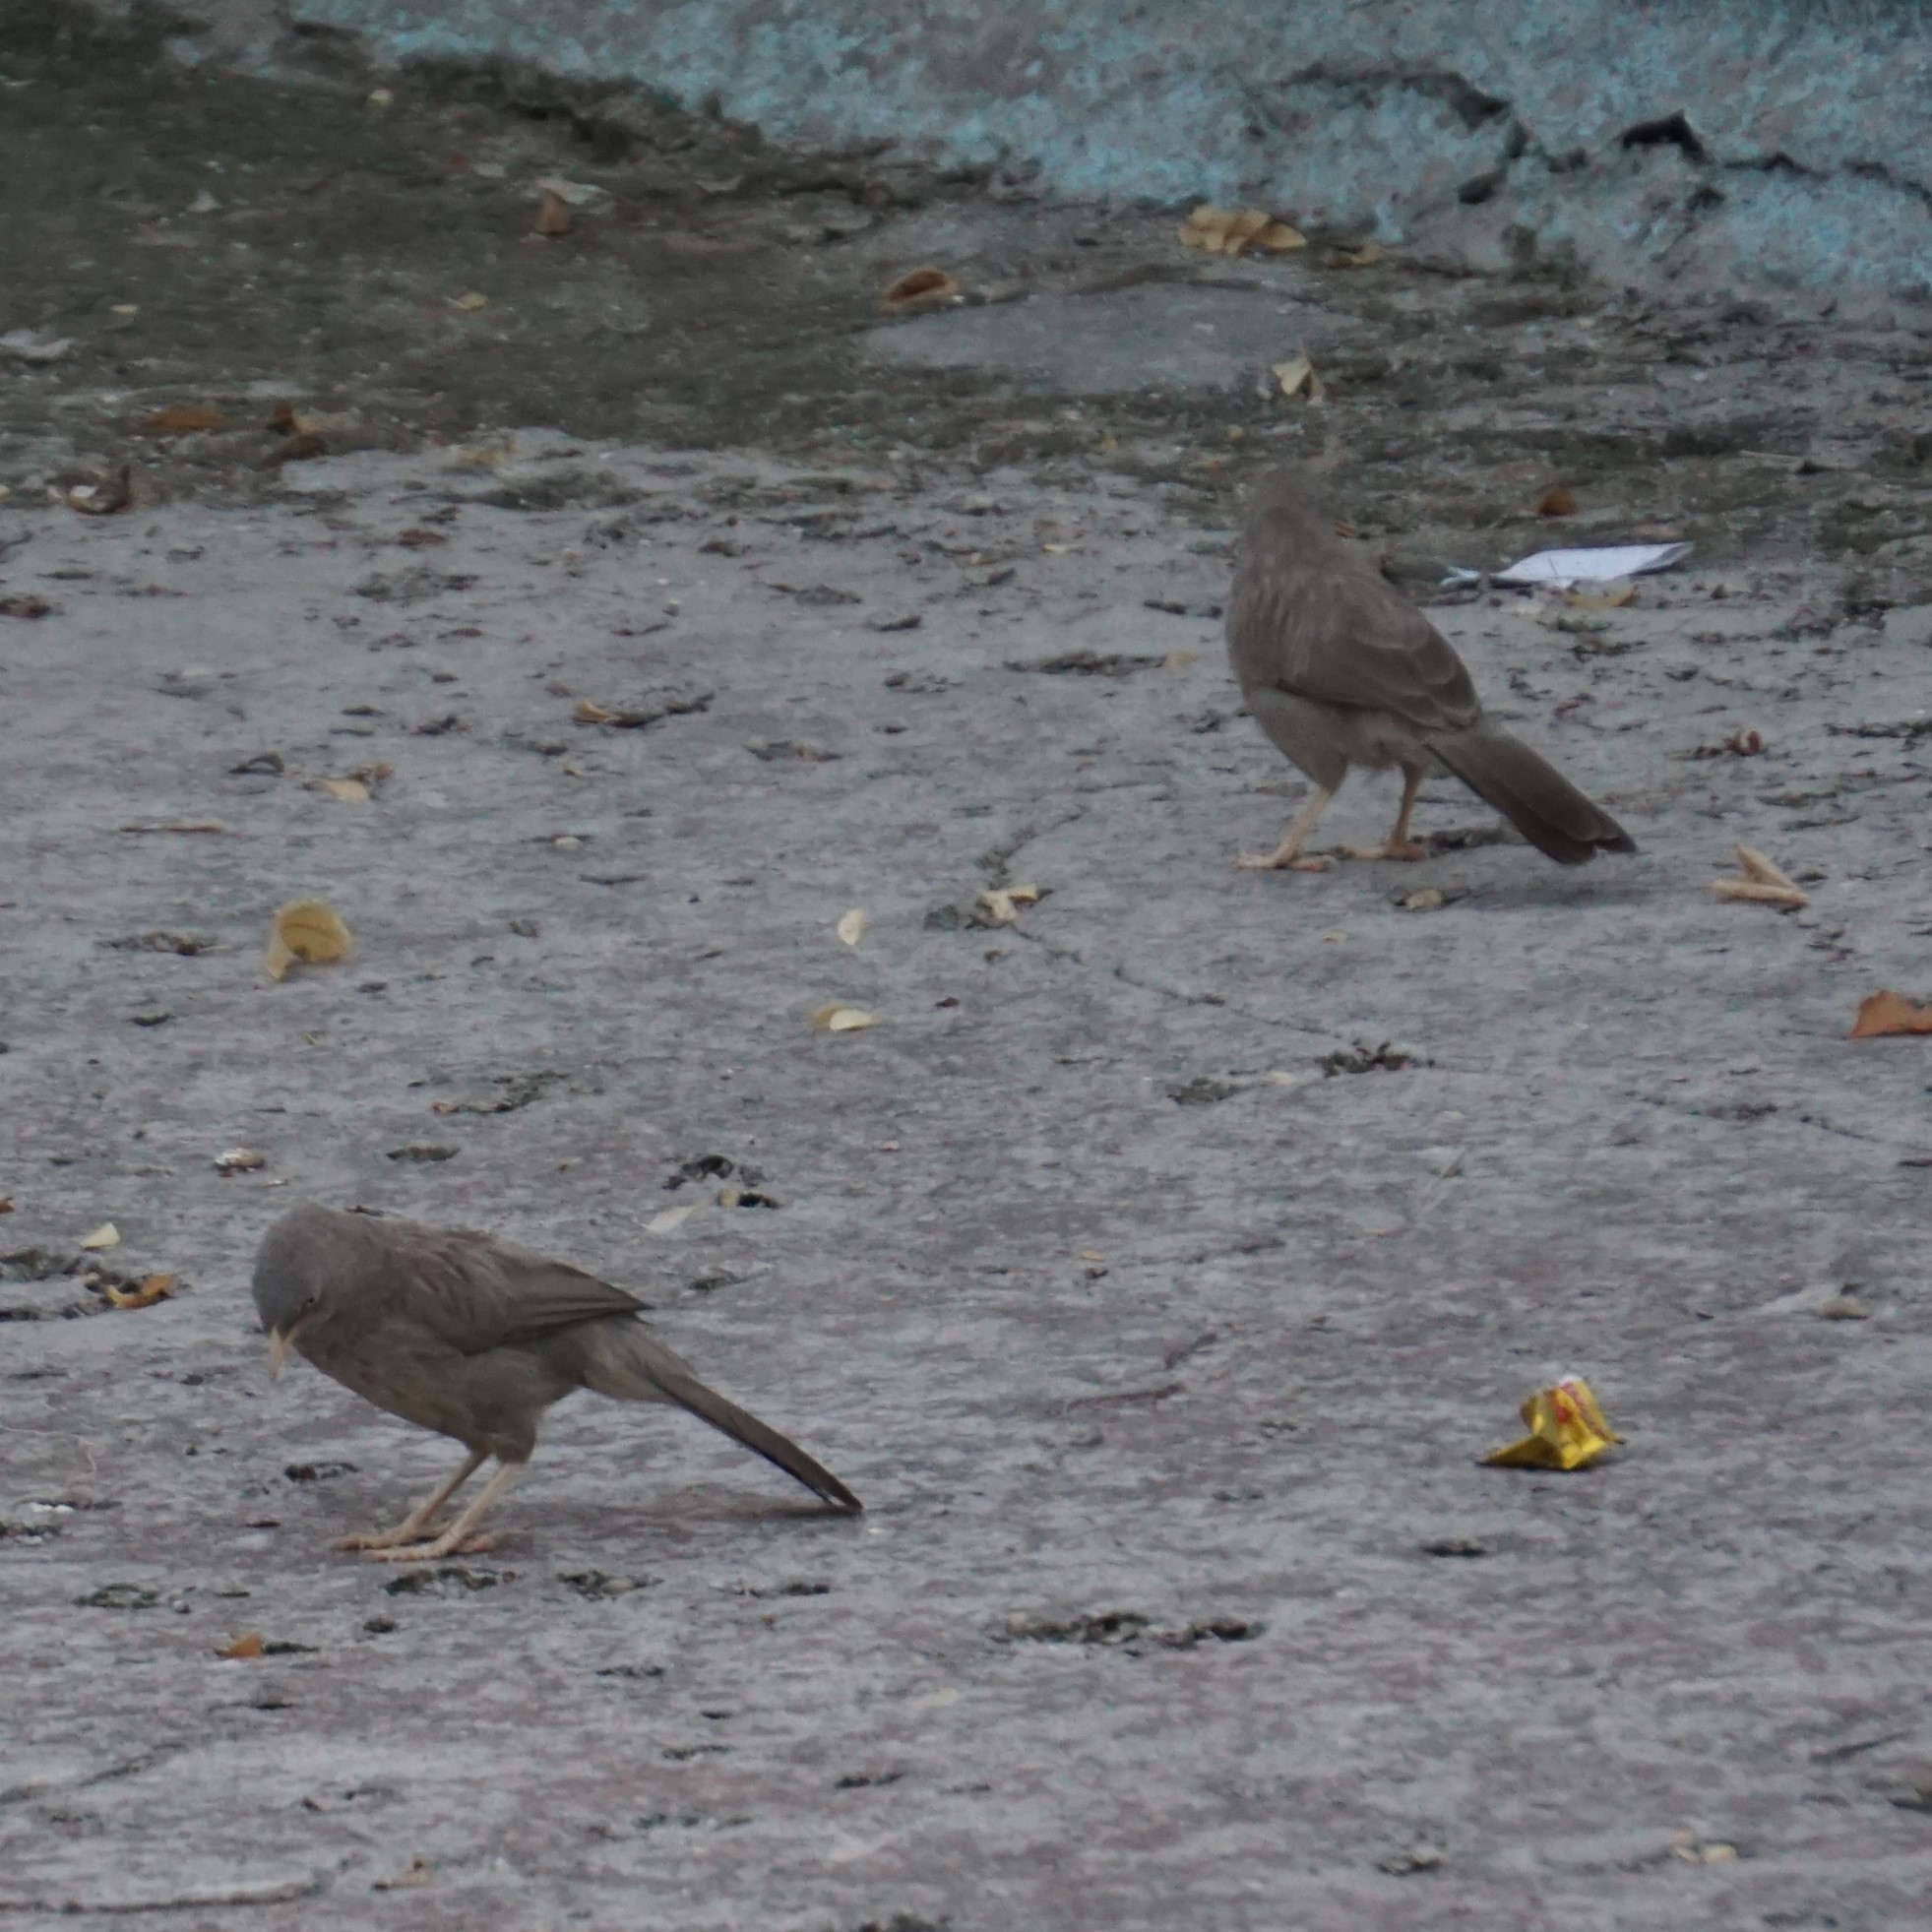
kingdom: Animalia
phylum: Chordata
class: Aves
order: Passeriformes
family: Leiothrichidae
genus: Turdoides
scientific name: Turdoides striata
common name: Jungle babbler
